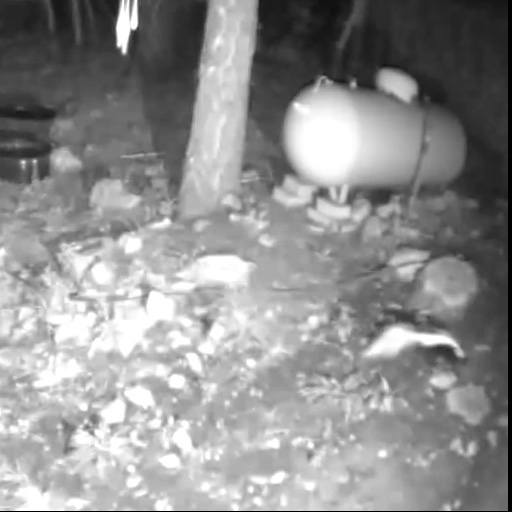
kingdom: Animalia
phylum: Chordata
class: Mammalia
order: Carnivora
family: Mephitidae
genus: Mephitis
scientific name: Mephitis mephitis
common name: Striped skunk
